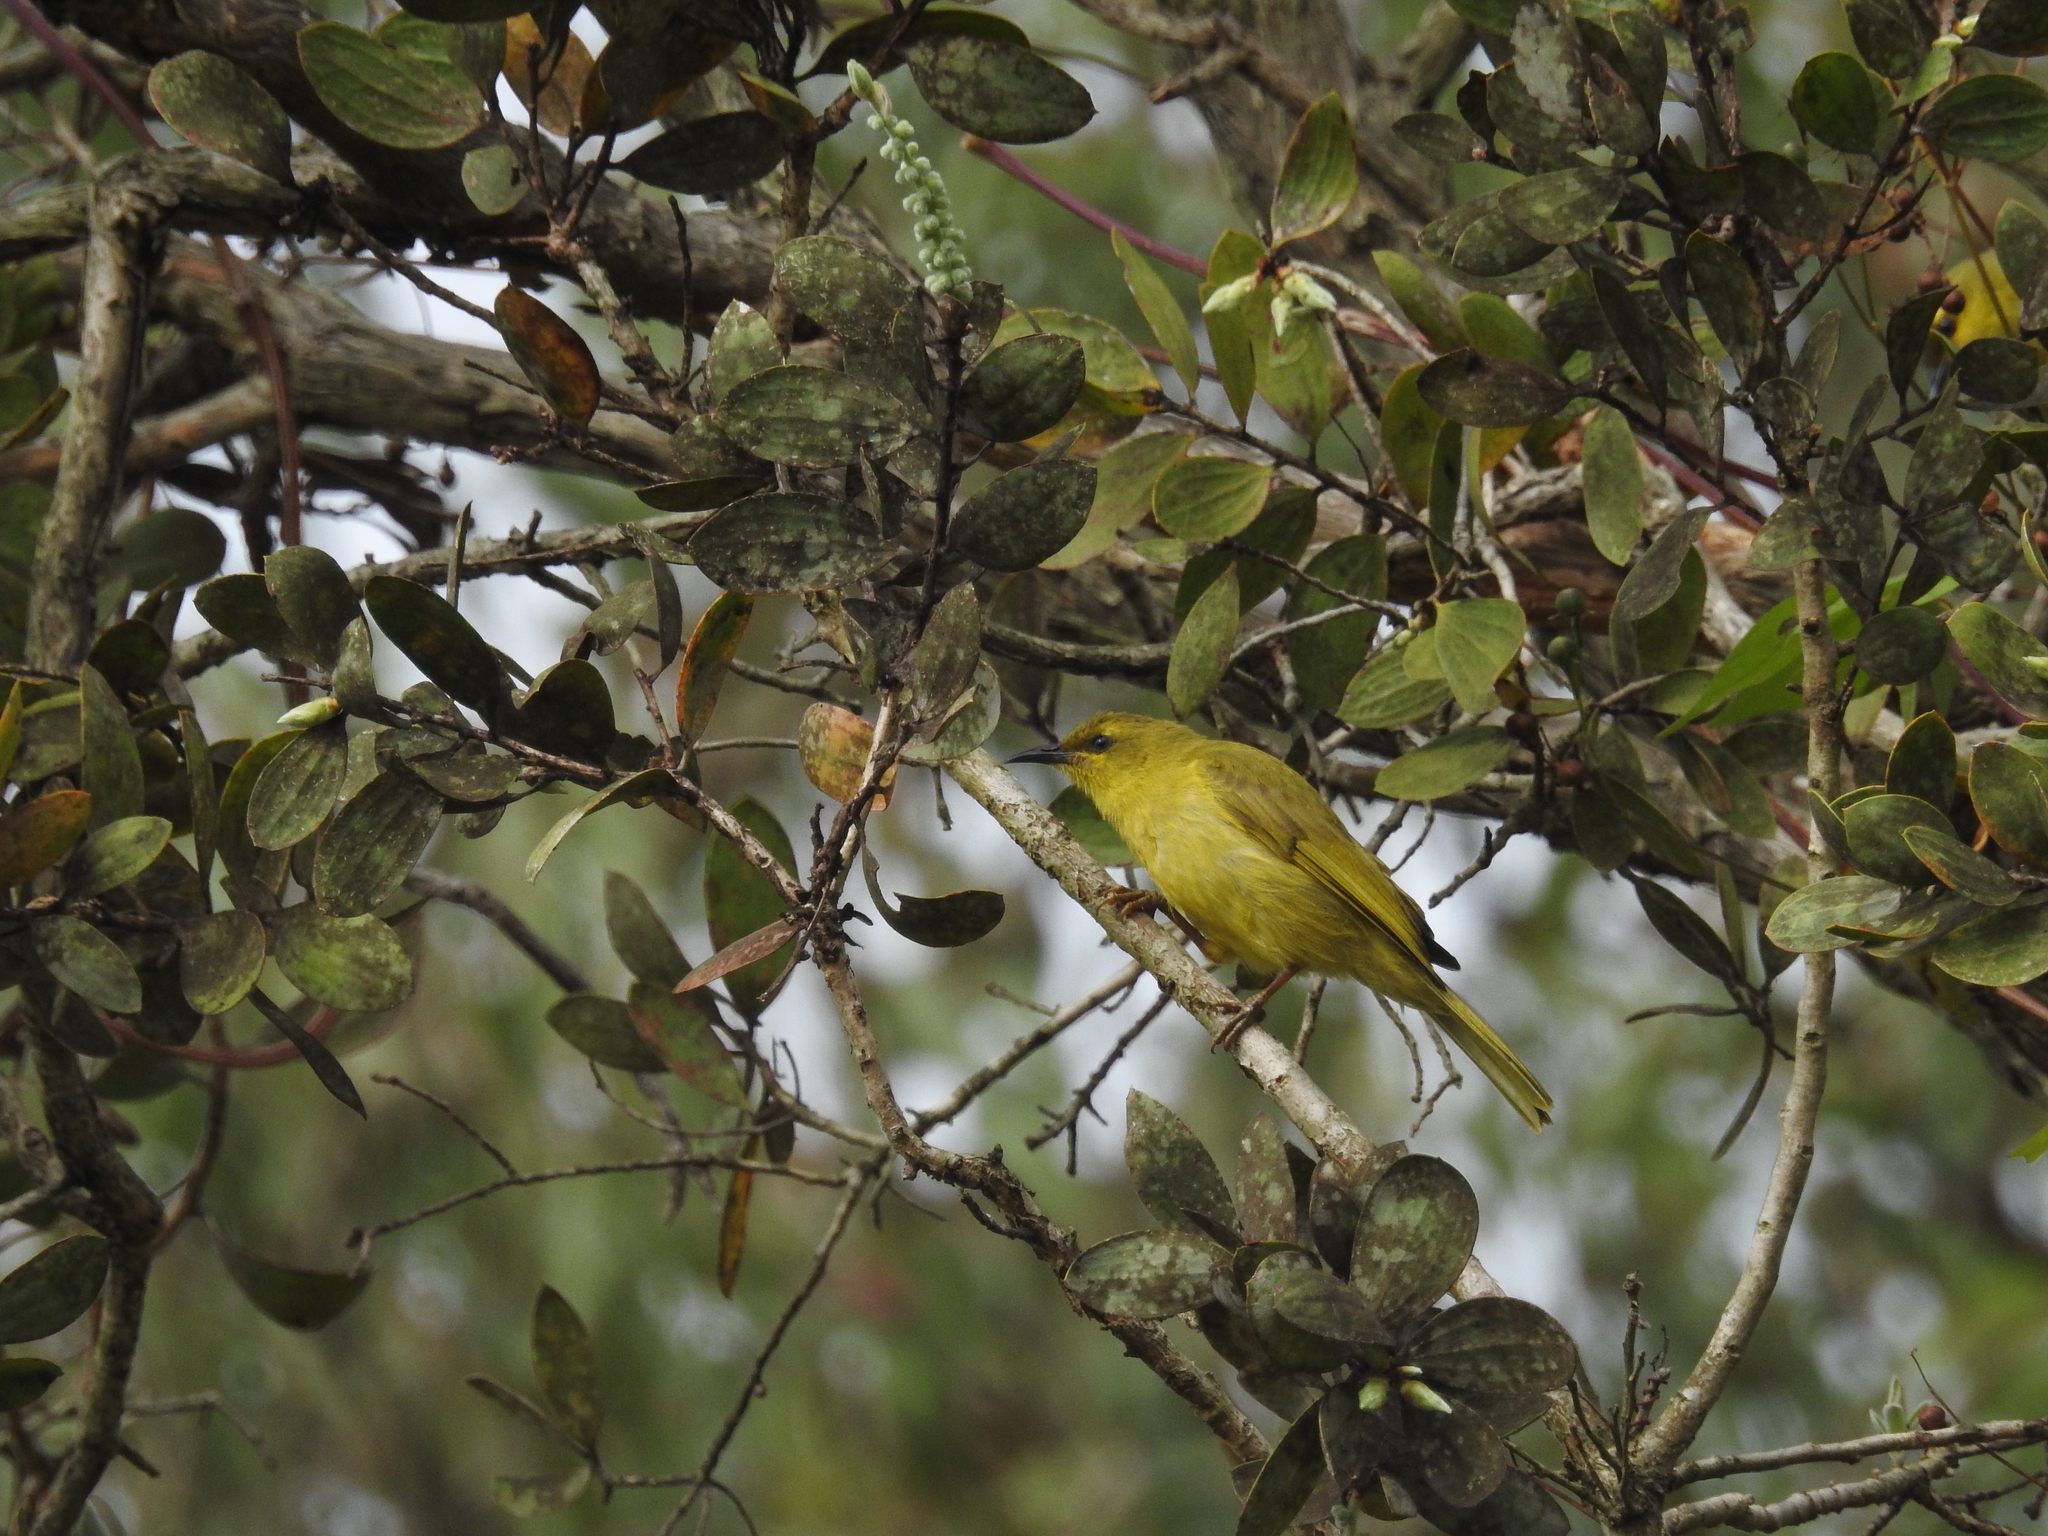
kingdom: Animalia
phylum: Chordata
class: Aves
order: Passeriformes
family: Meliphagidae
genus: Stomiopera
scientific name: Stomiopera flava
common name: Yellow honeyeater
